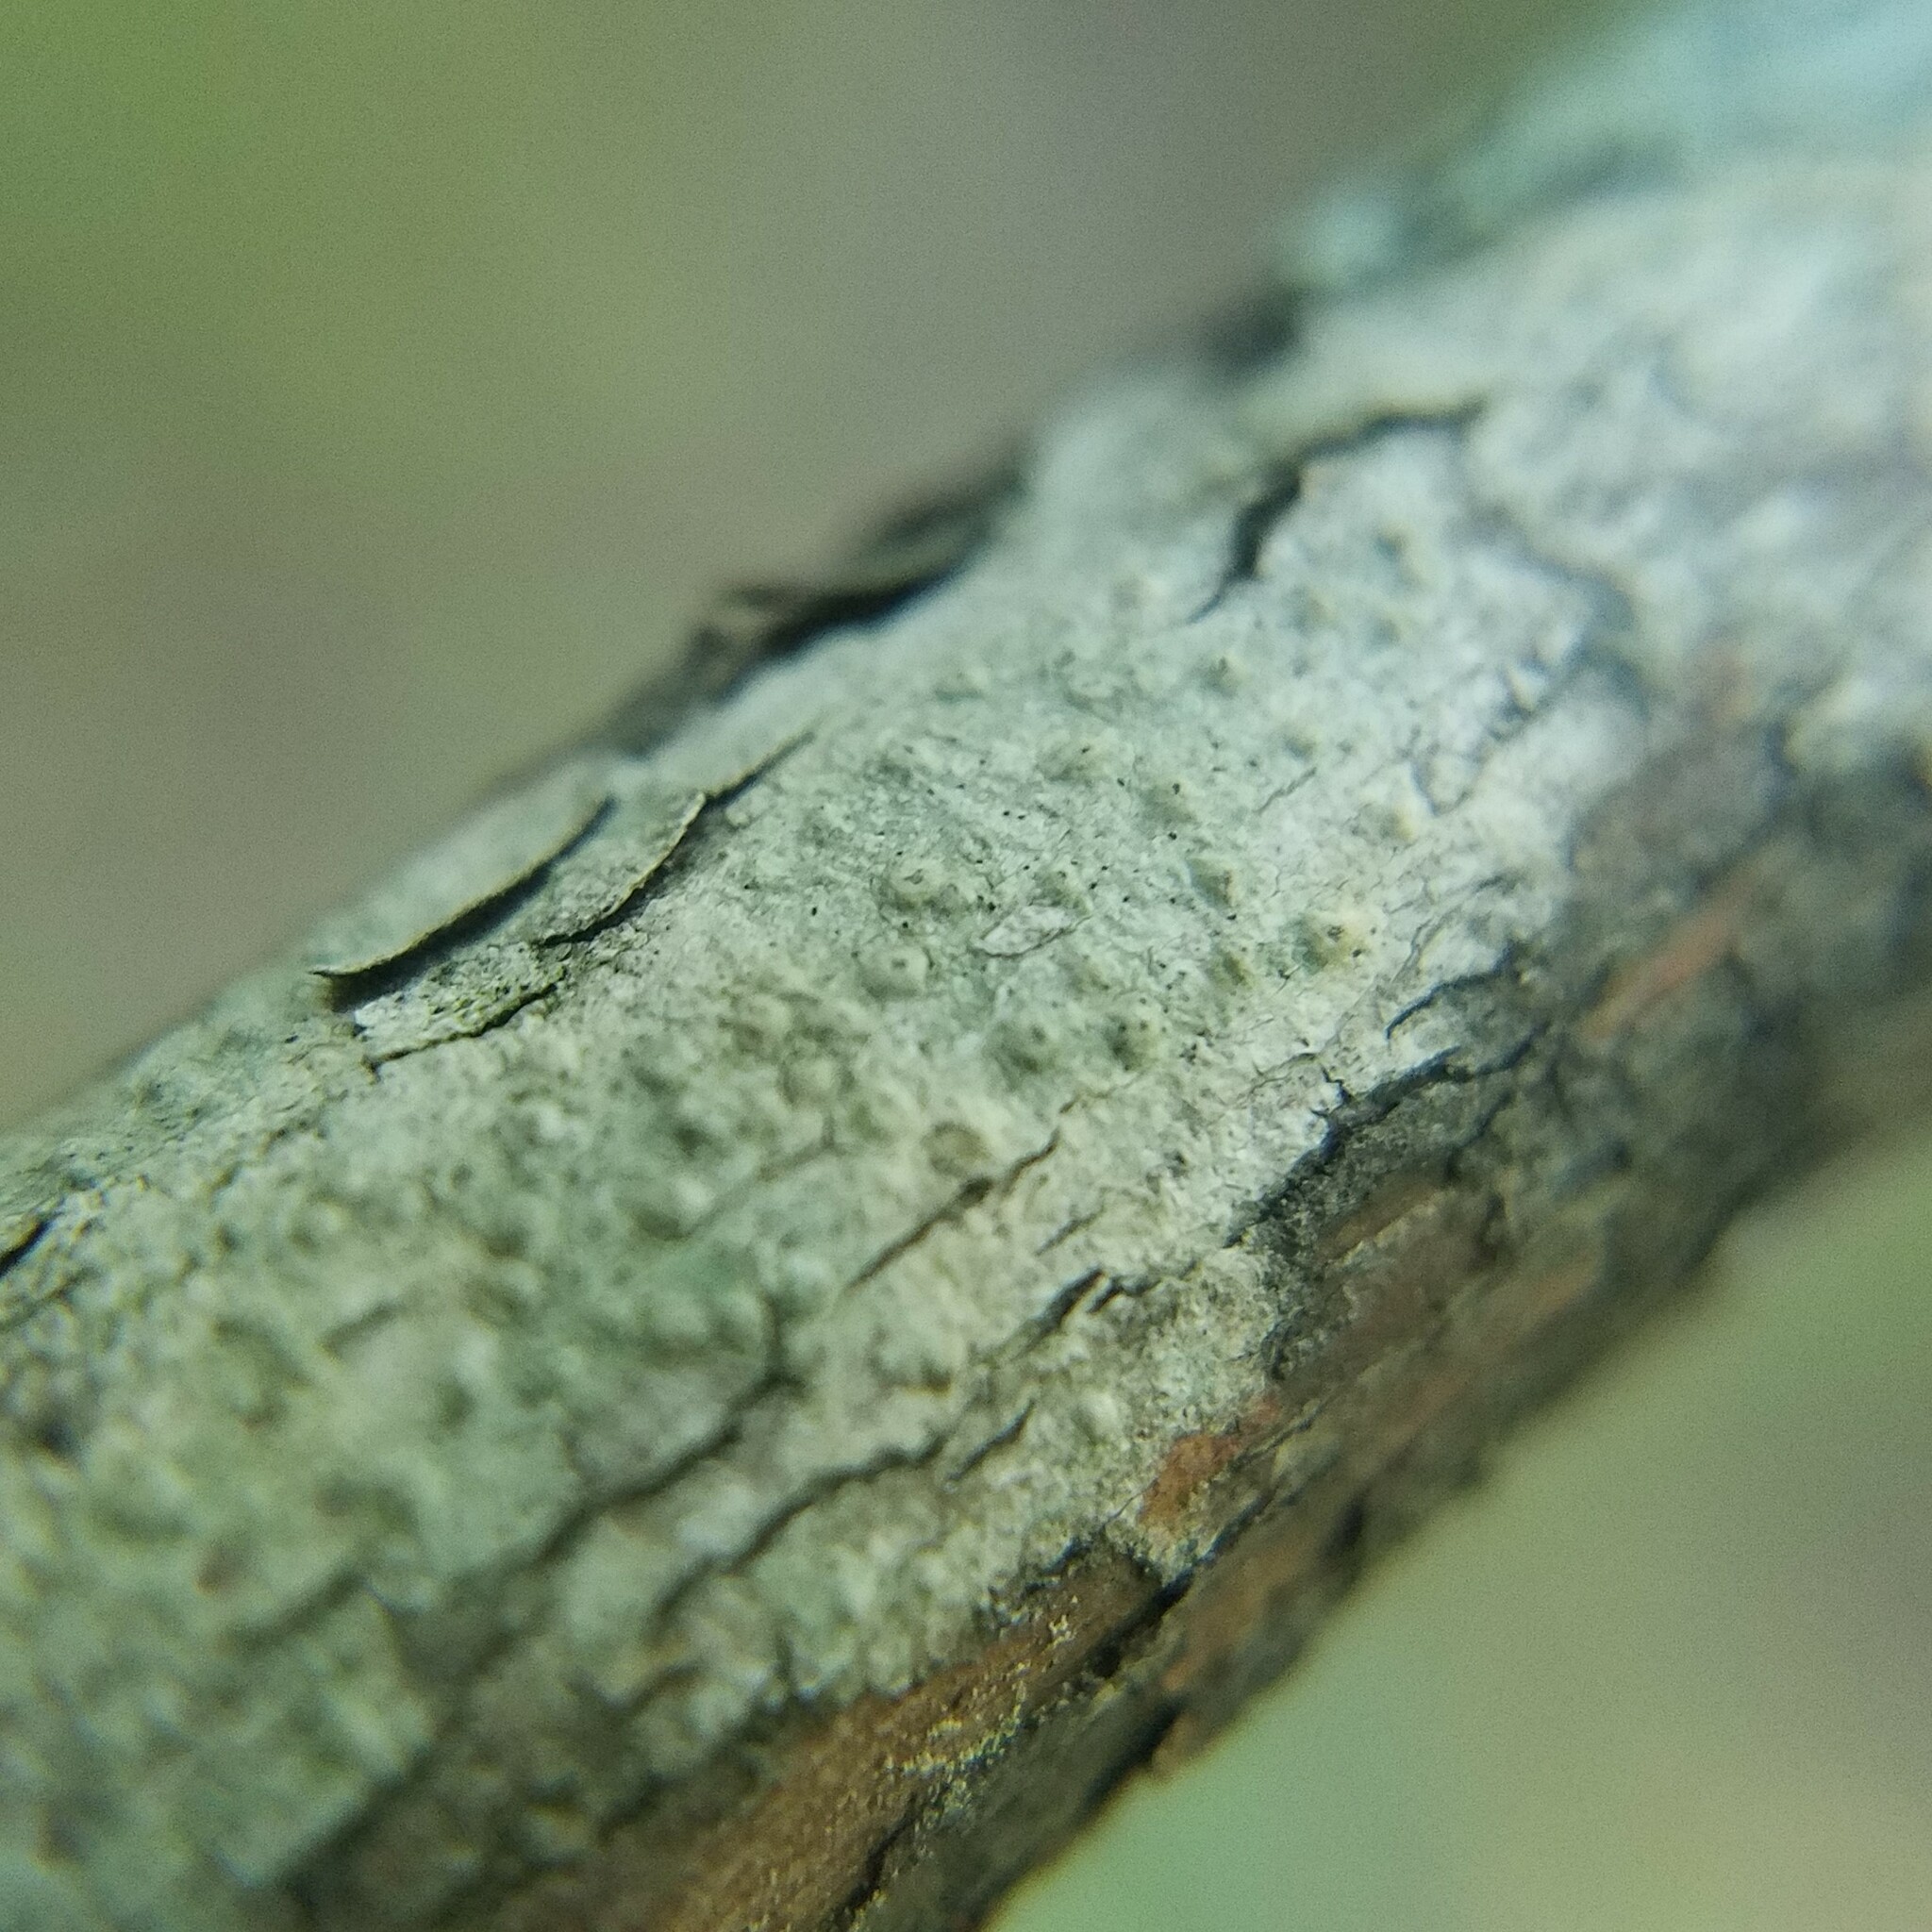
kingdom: Fungi
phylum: Ascomycota
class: Lecanoromycetes
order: Pertusariales
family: Pertusariaceae
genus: Pertusaria
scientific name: Pertusaria xanthodes
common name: Volcano wart lichen
